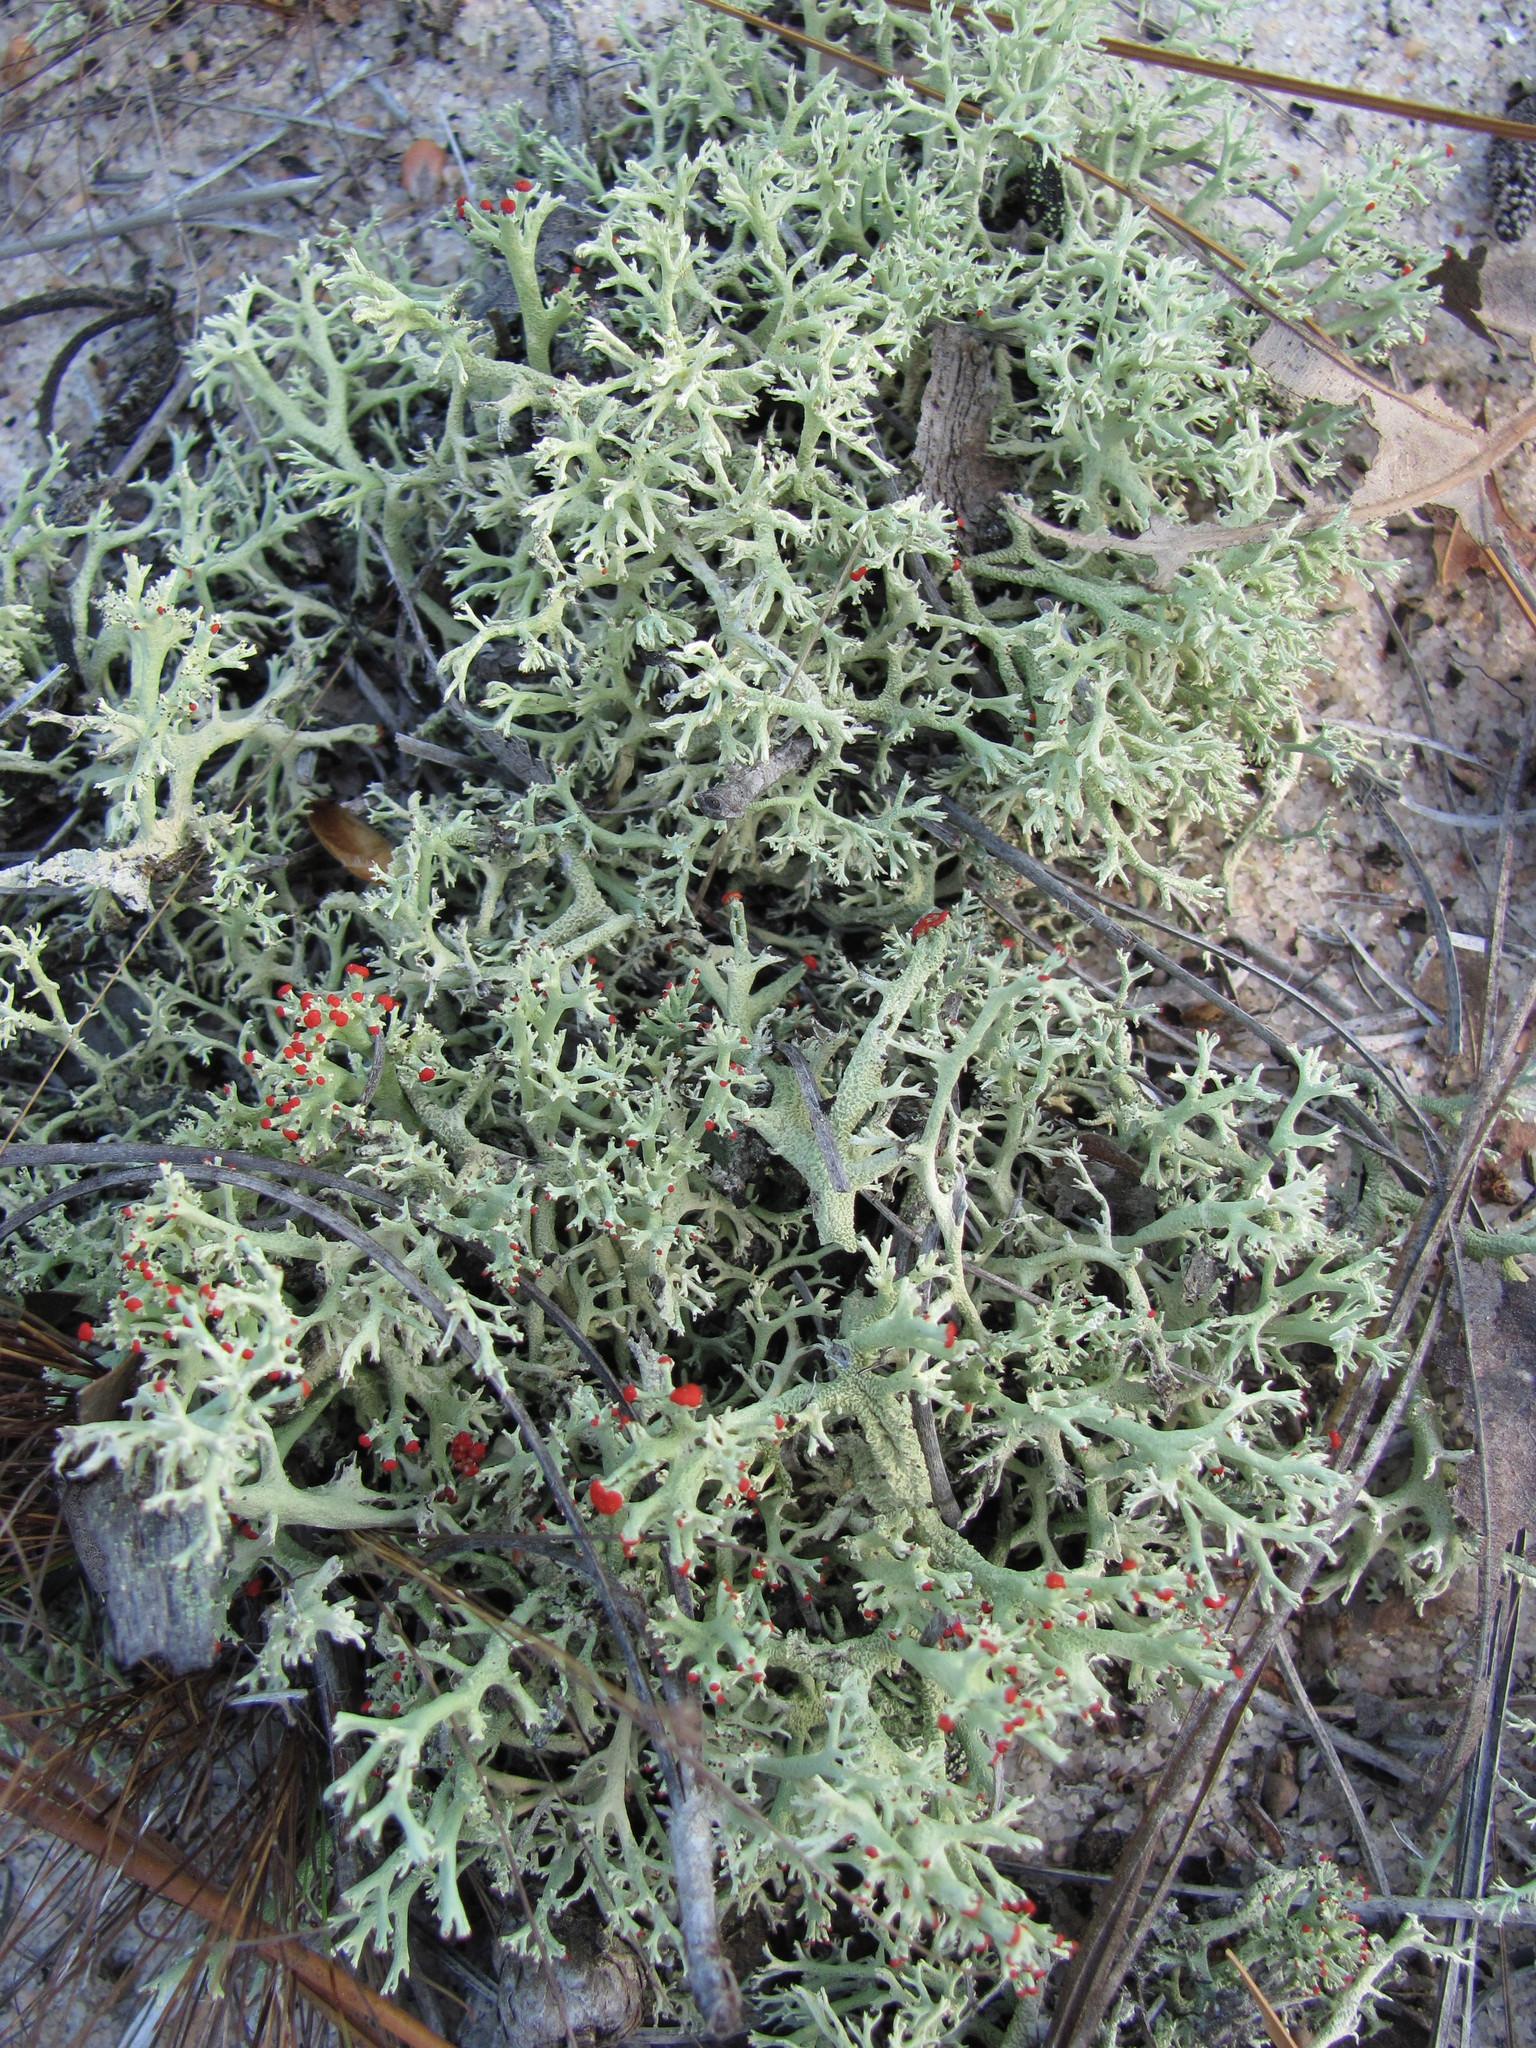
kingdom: Fungi
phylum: Ascomycota
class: Lecanoromycetes
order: Lecanorales
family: Cladoniaceae
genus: Cladonia
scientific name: Cladonia leporina
